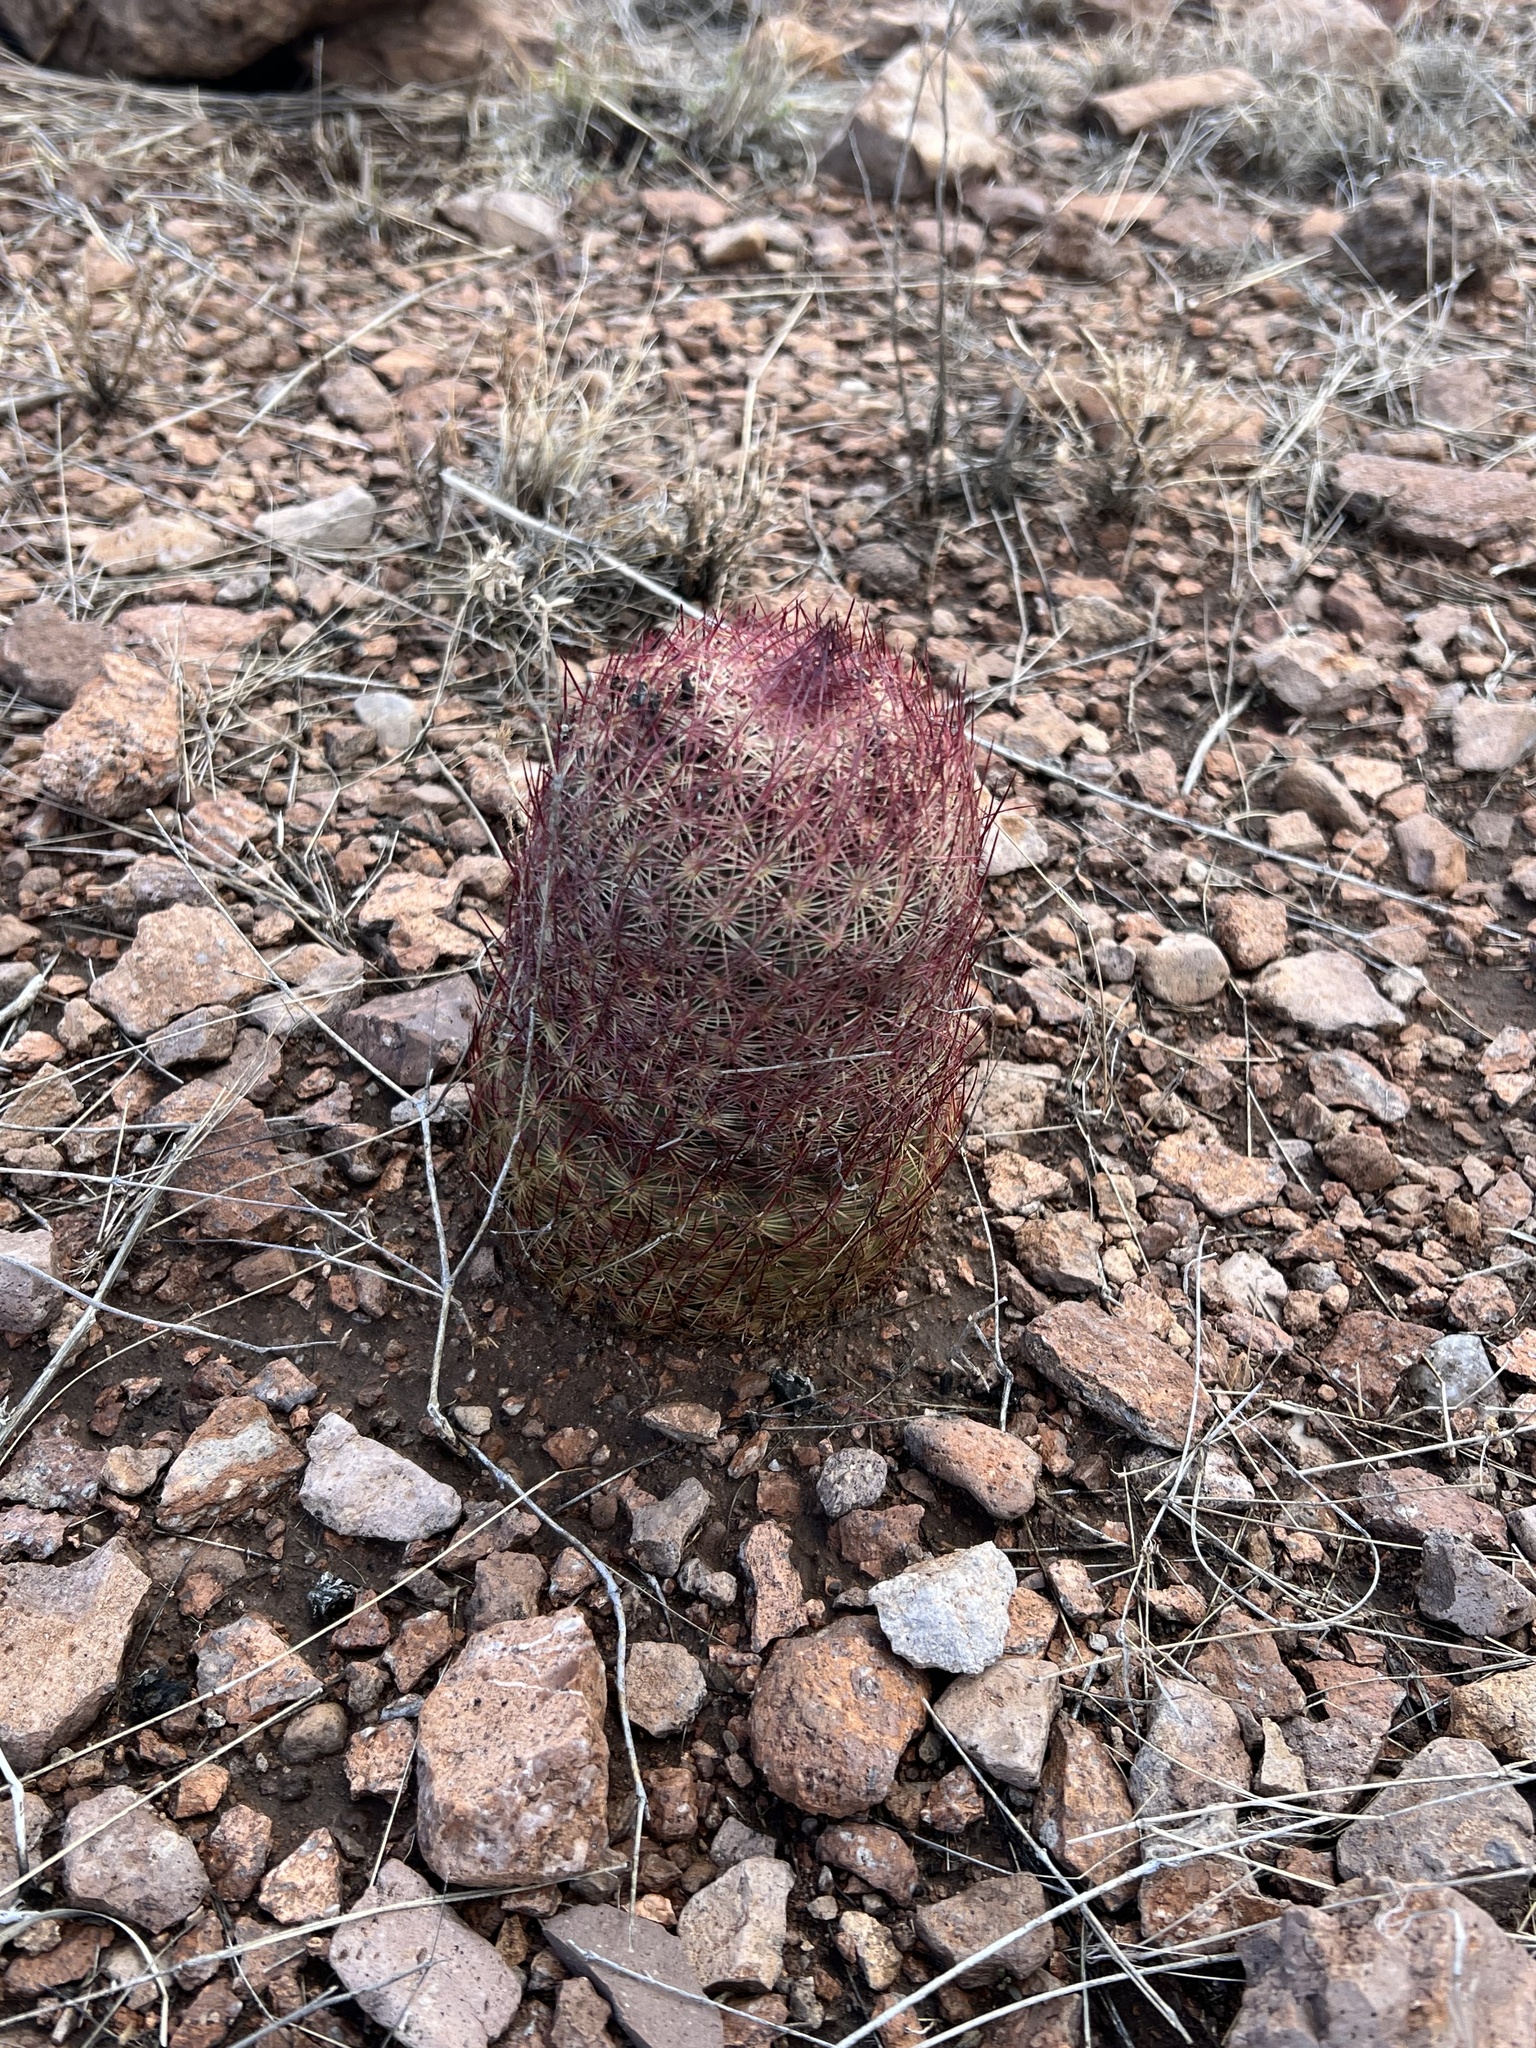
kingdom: Plantae
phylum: Tracheophyta
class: Magnoliopsida
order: Caryophyllales
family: Cactaceae
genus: Sclerocactus
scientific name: Sclerocactus johnsonii
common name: Eight-spine fishhook cactus
